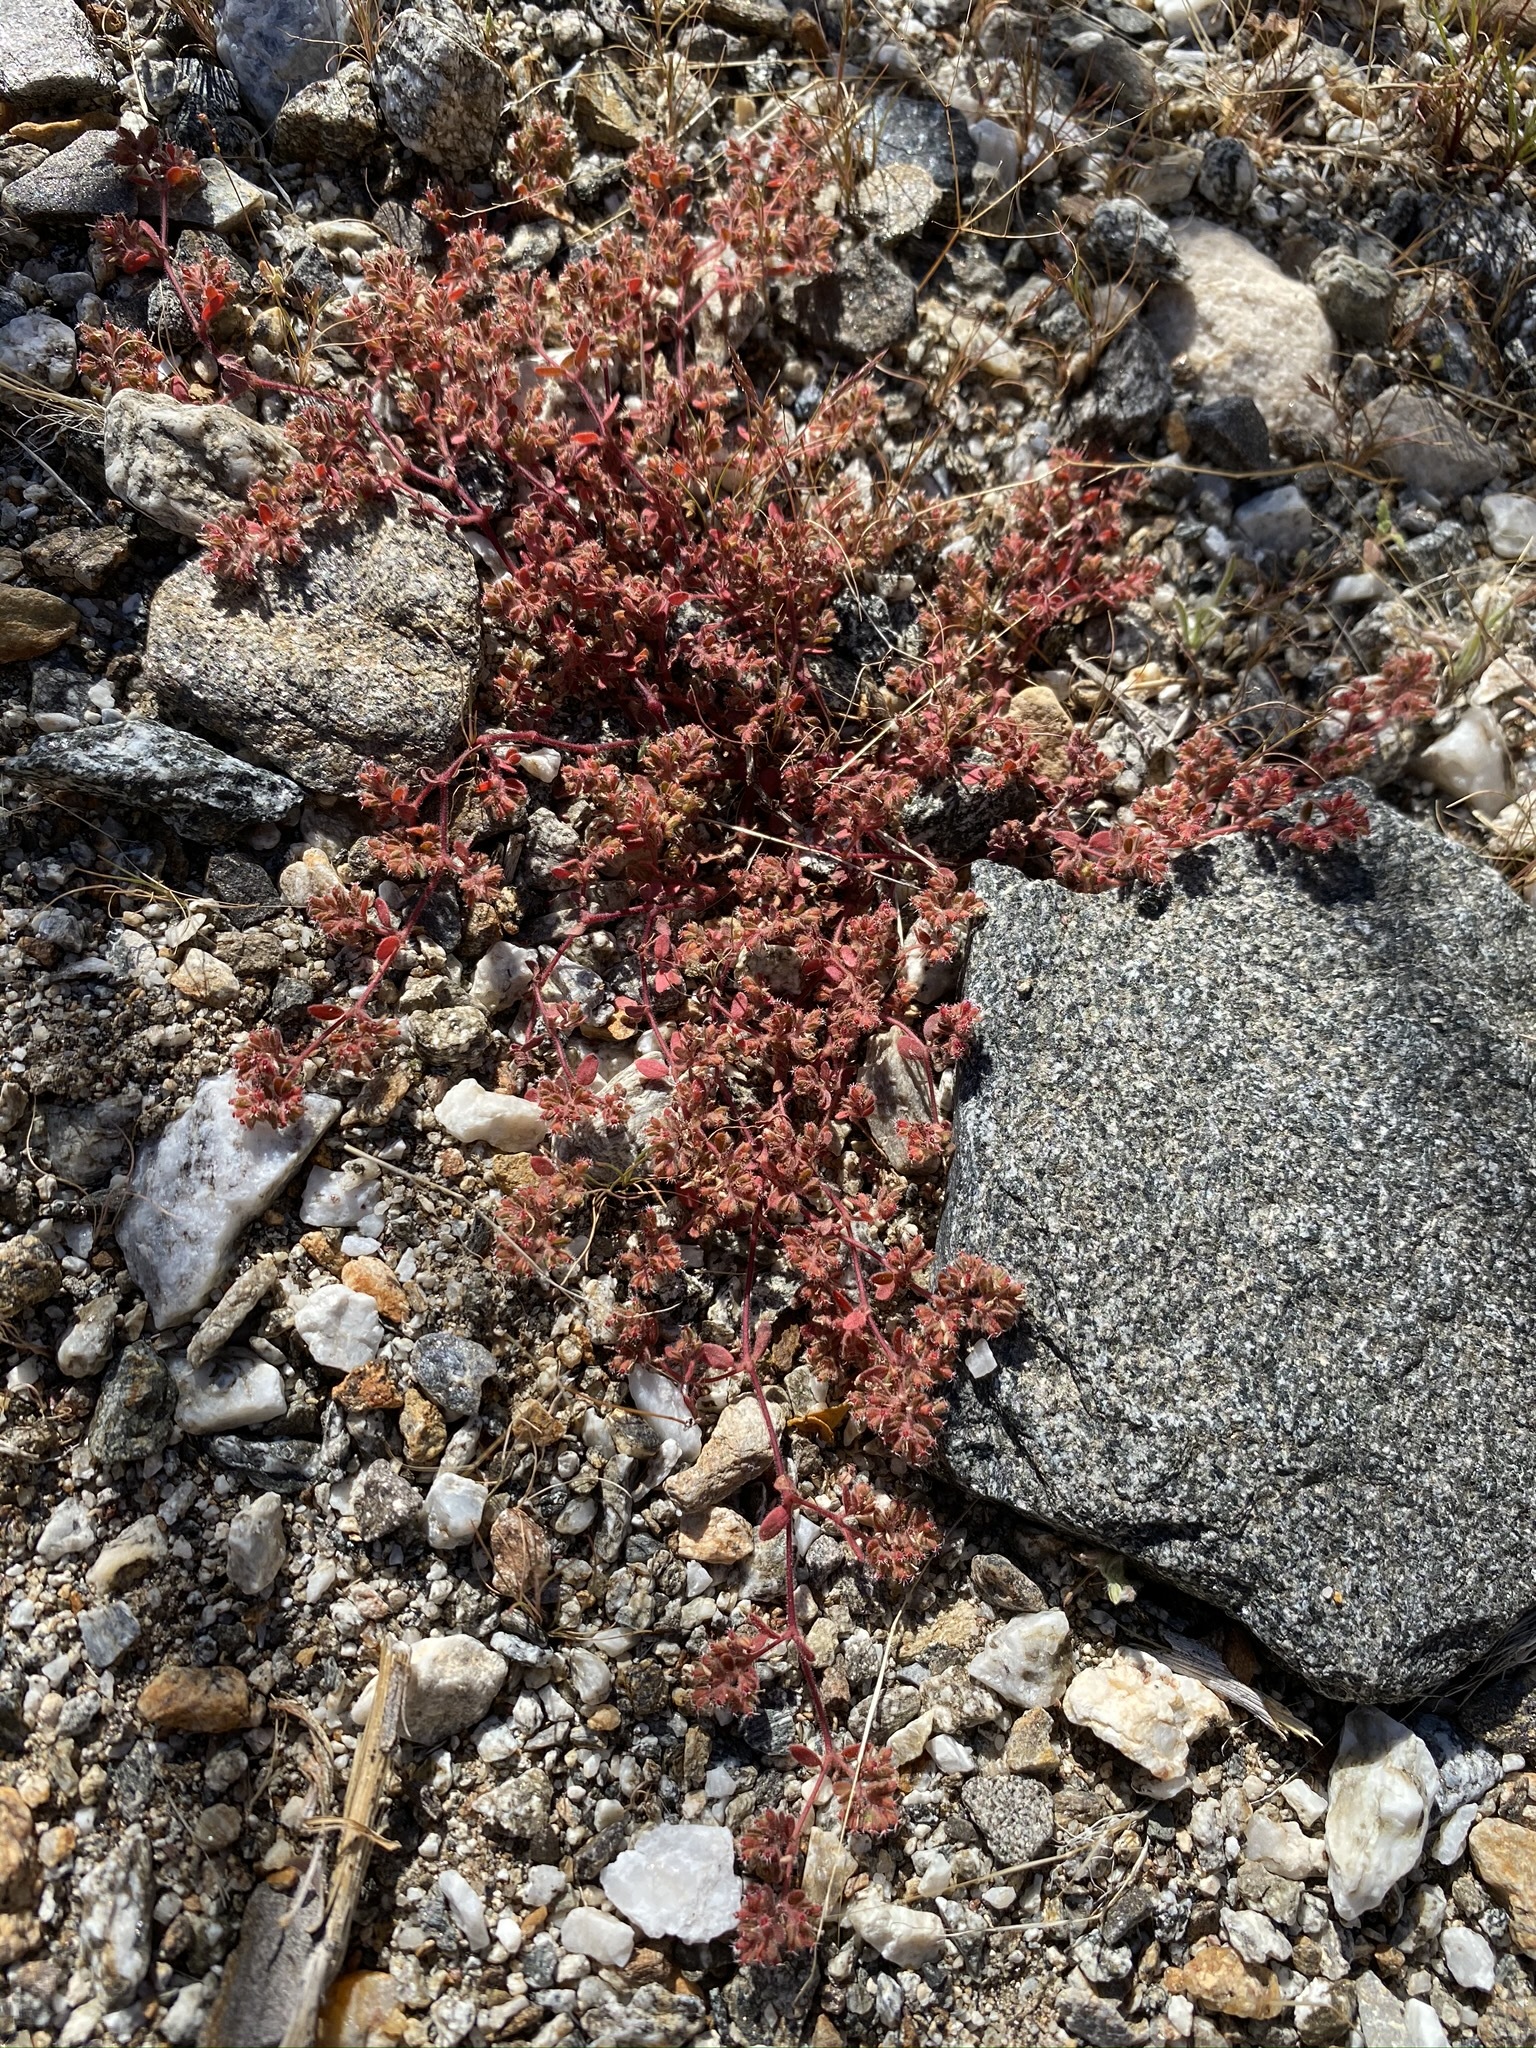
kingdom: Plantae
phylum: Tracheophyta
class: Magnoliopsida
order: Malpighiales
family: Euphorbiaceae
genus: Euphorbia
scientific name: Euphorbia setiloba
